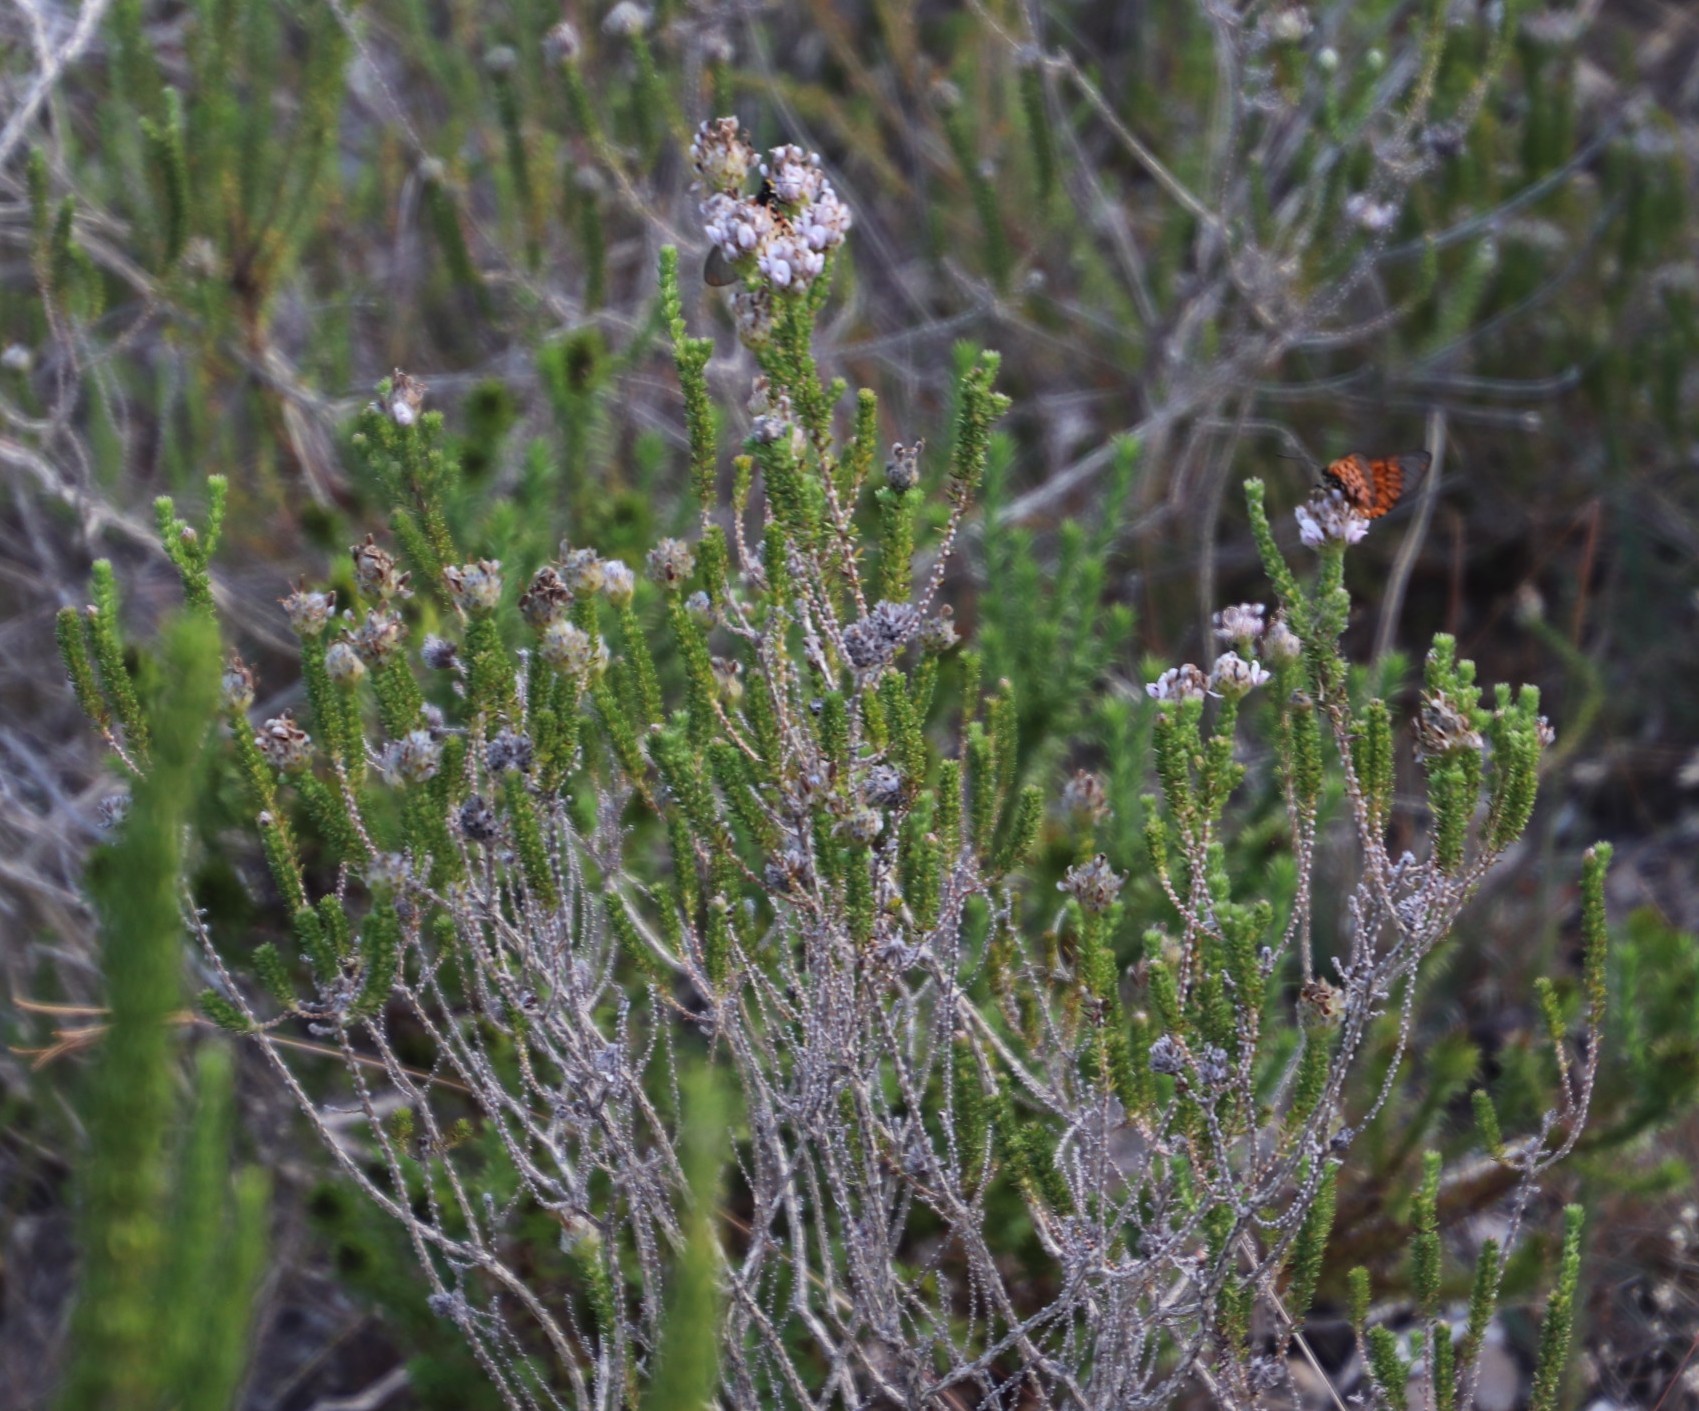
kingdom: Animalia
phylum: Arthropoda
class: Insecta
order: Lepidoptera
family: Nymphalidae
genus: Acraea
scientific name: Acraea horta
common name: Garden acraea
